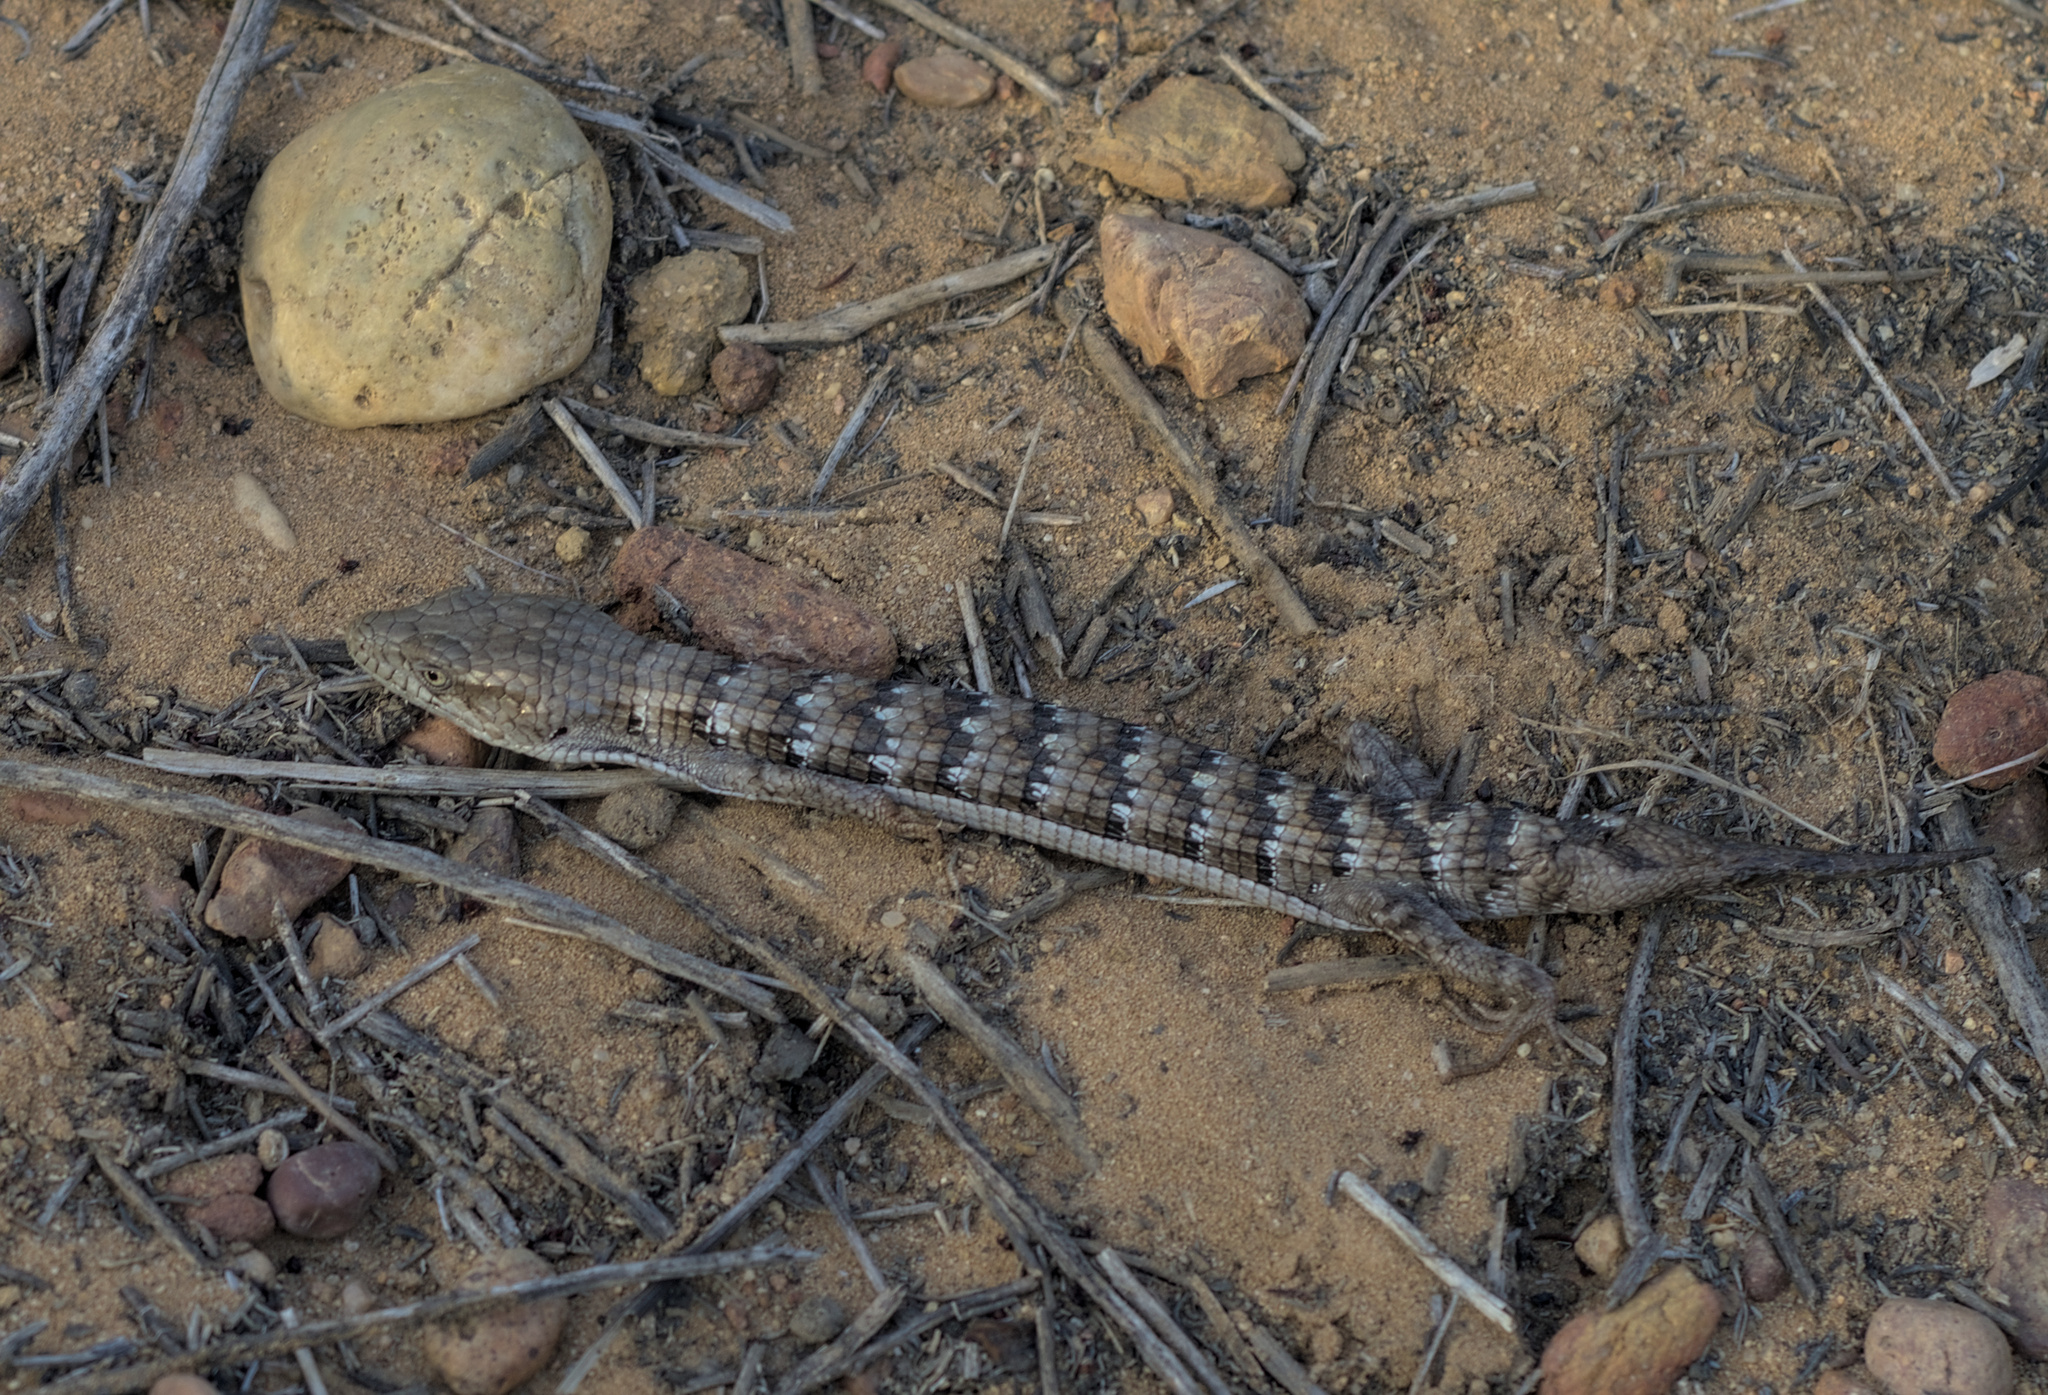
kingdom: Animalia
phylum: Chordata
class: Squamata
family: Anguidae
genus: Elgaria
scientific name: Elgaria multicarinata
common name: Southern alligator lizard
